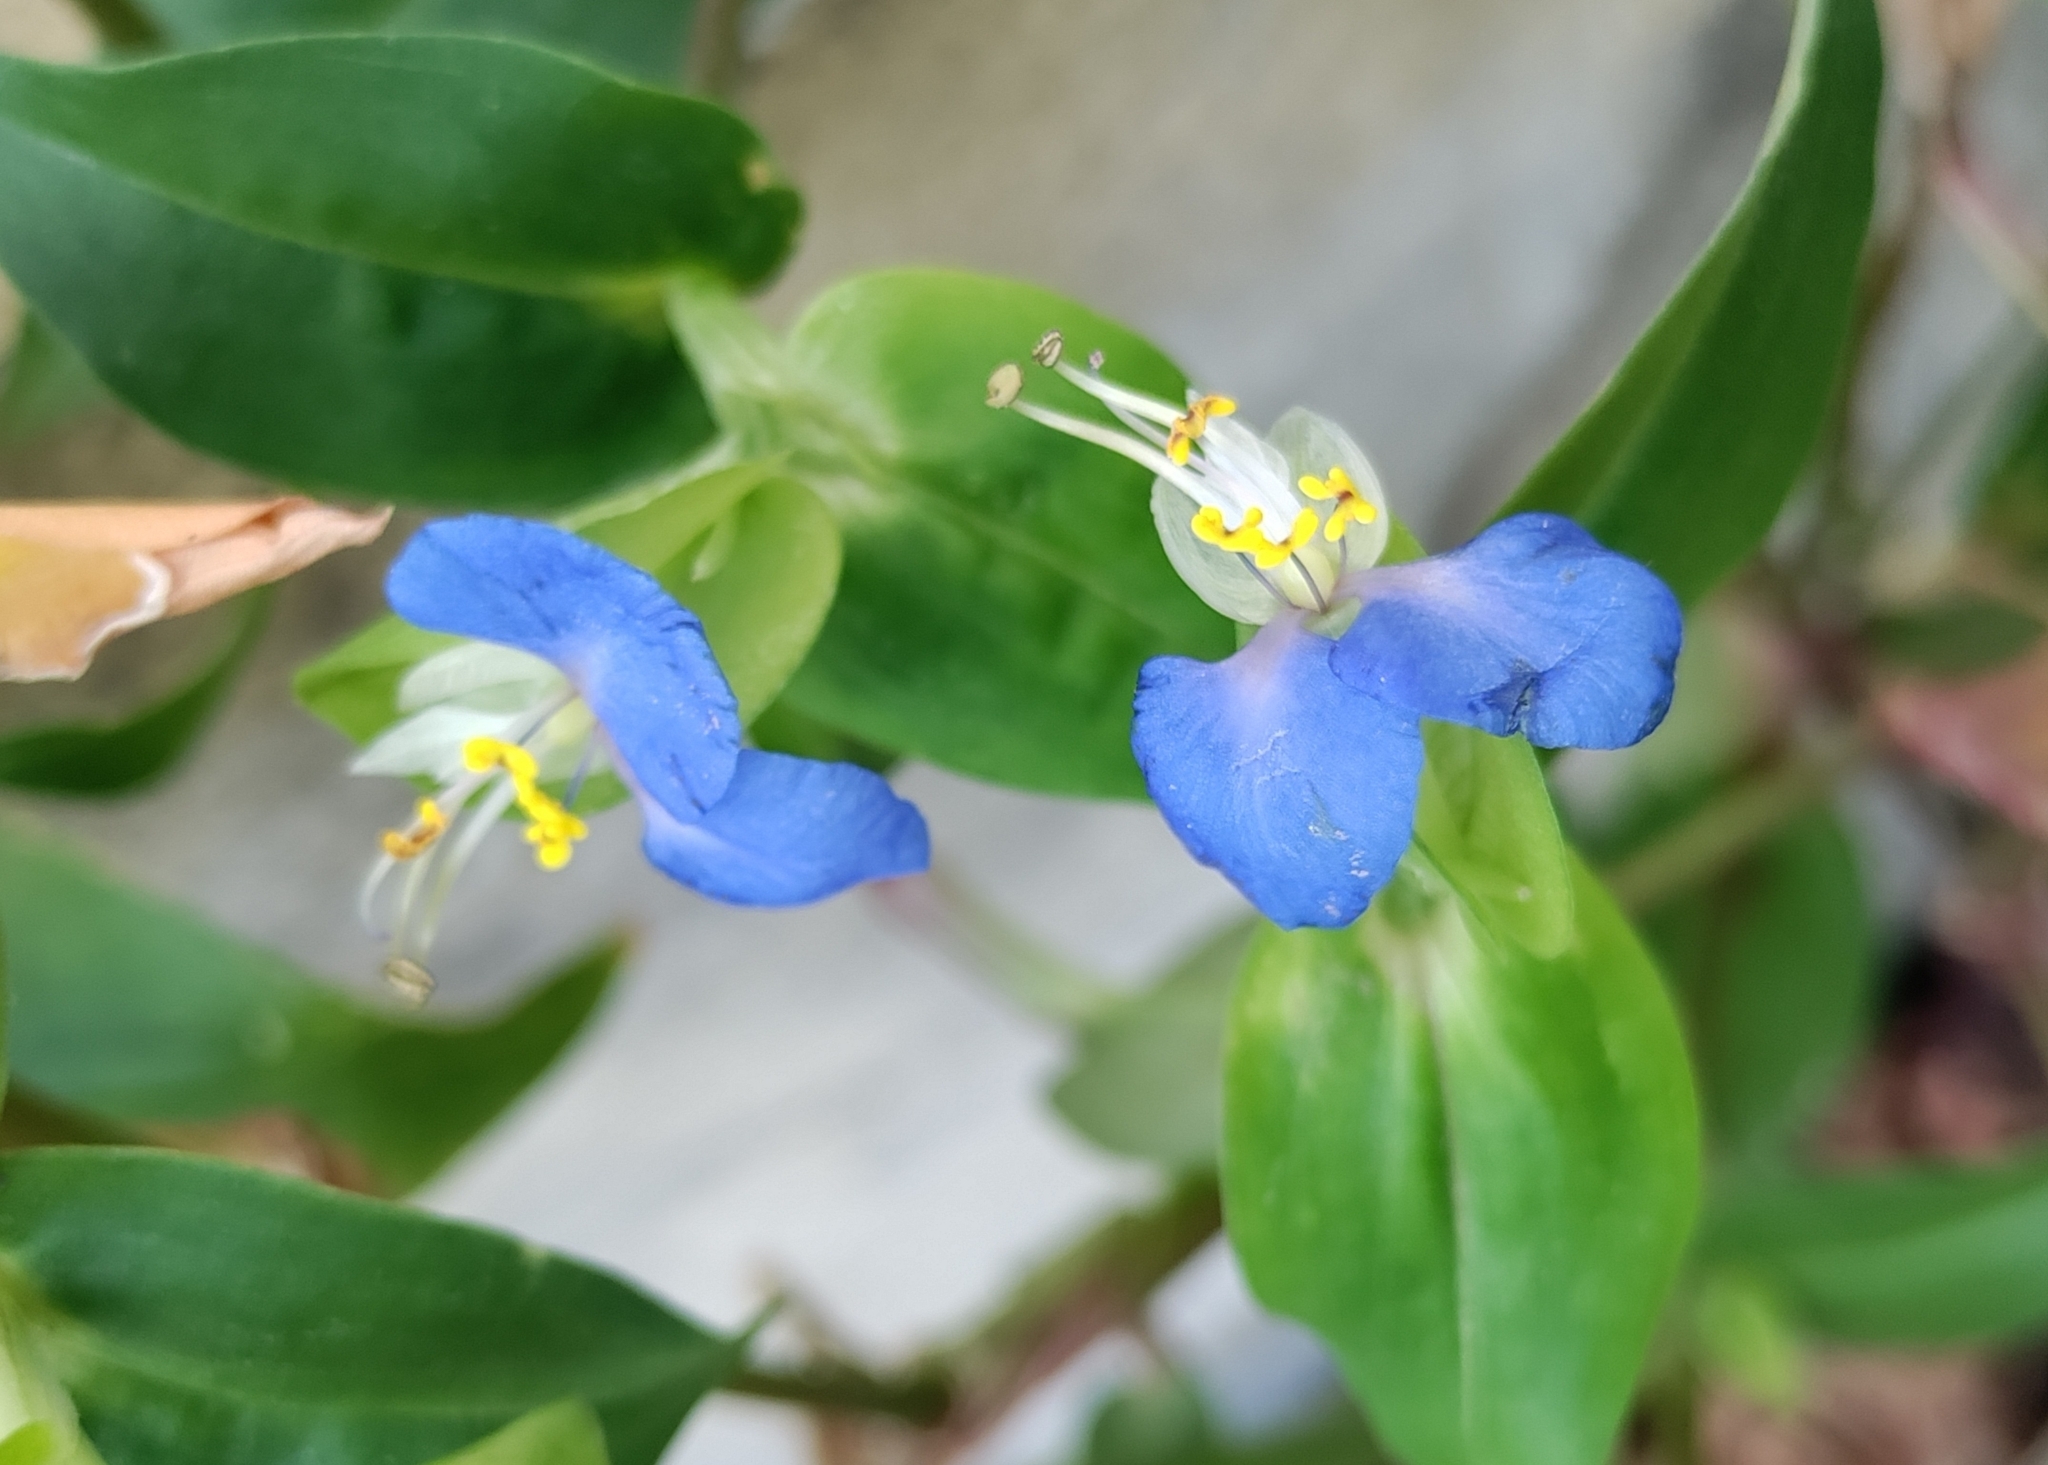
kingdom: Plantae
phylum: Tracheophyta
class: Liliopsida
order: Commelinales
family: Commelinaceae
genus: Commelina
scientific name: Commelina communis
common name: Asiatic dayflower
